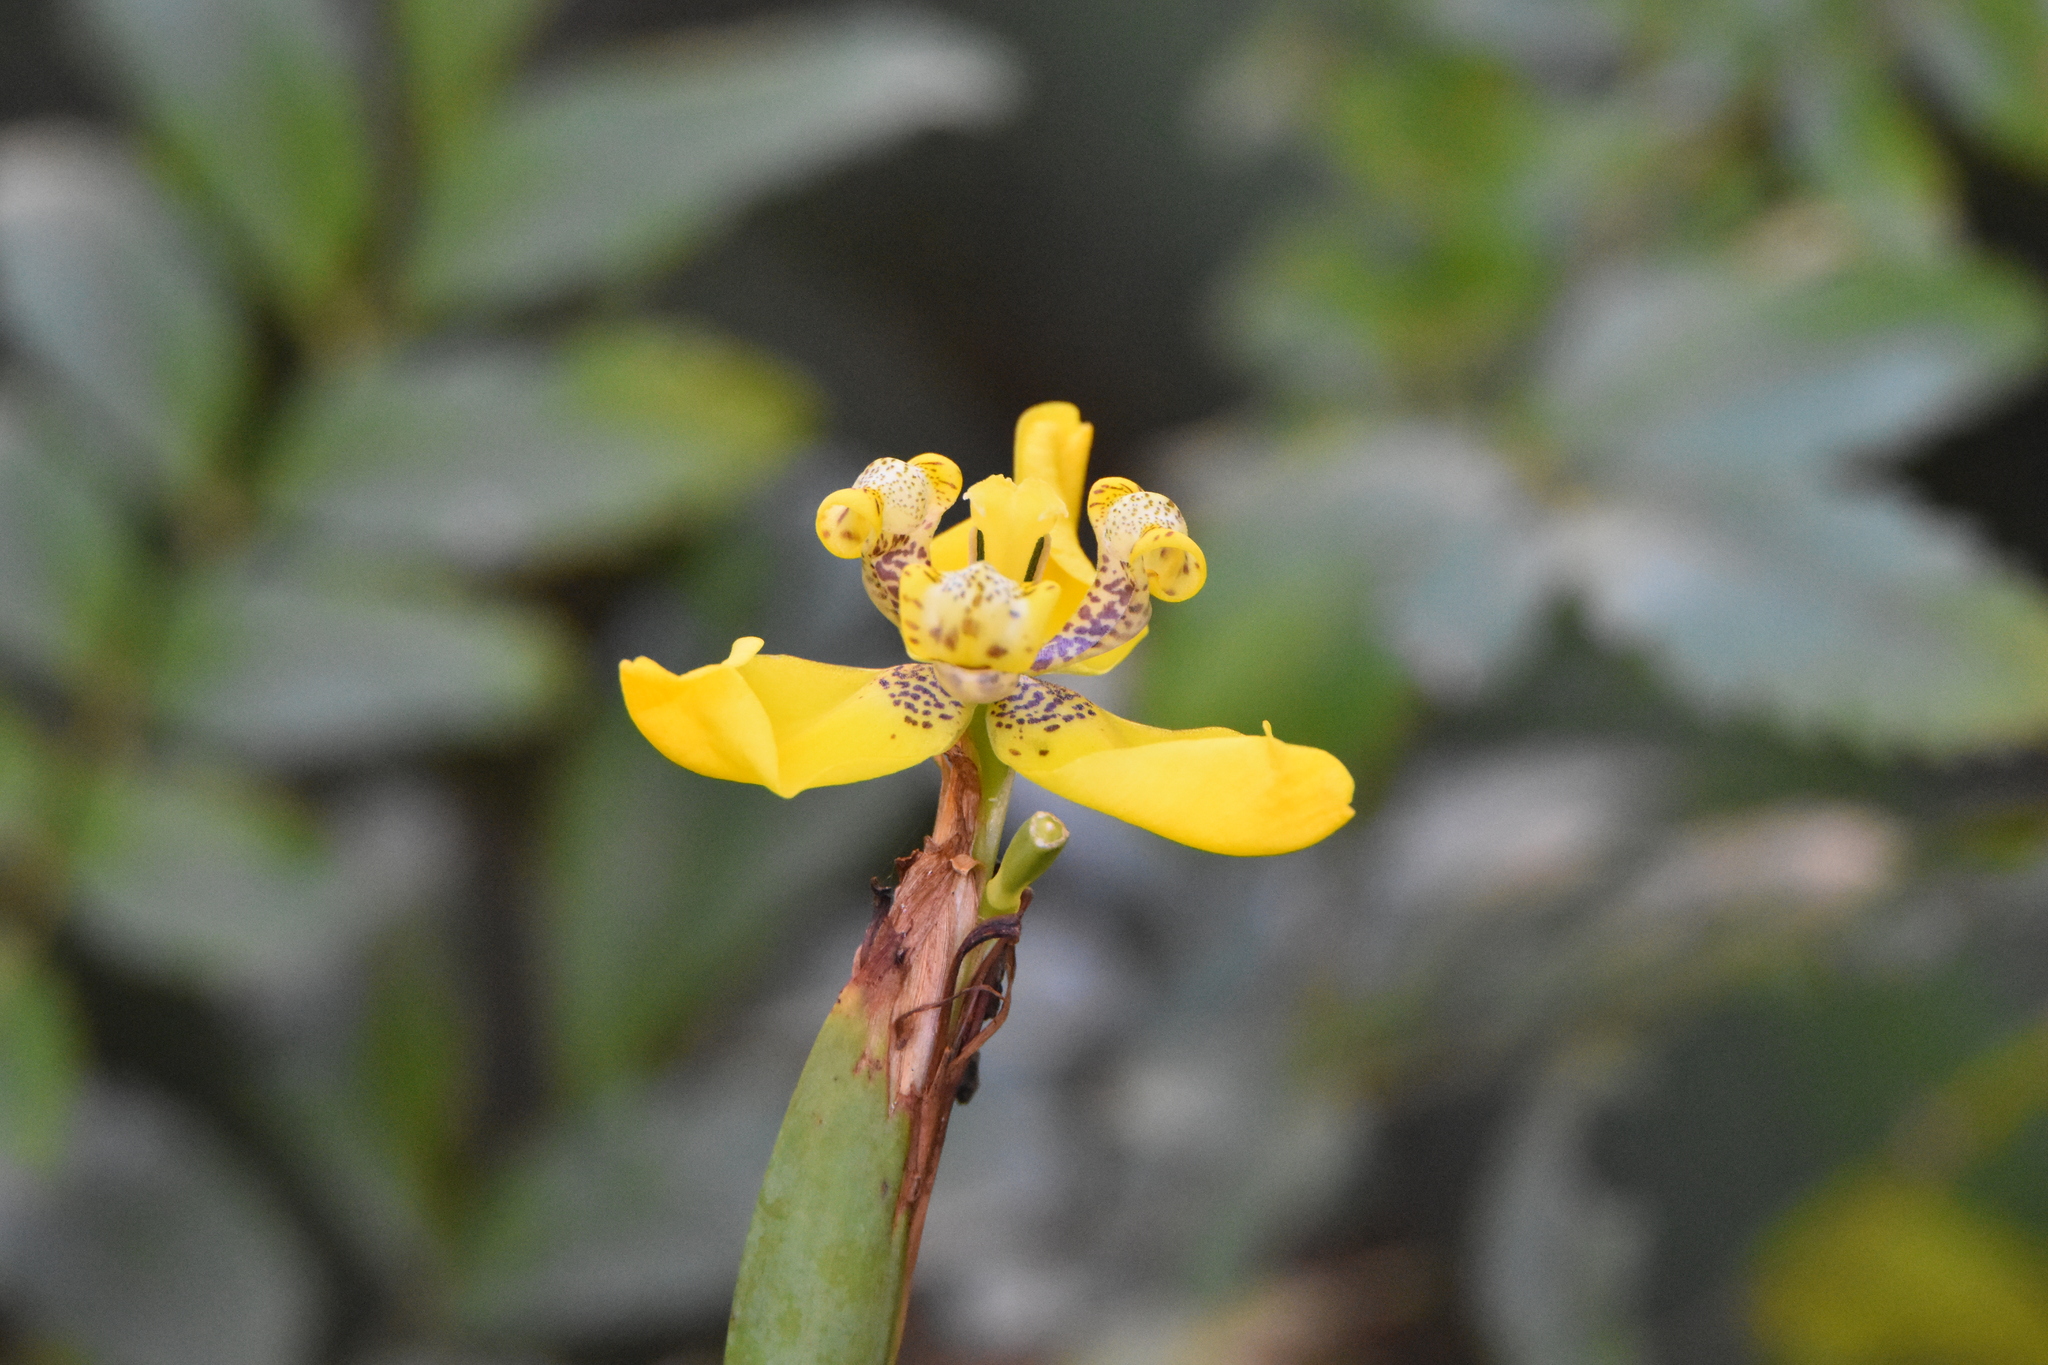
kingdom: Plantae
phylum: Tracheophyta
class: Liliopsida
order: Asparagales
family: Iridaceae
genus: Trimezia
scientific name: Trimezia spathata
